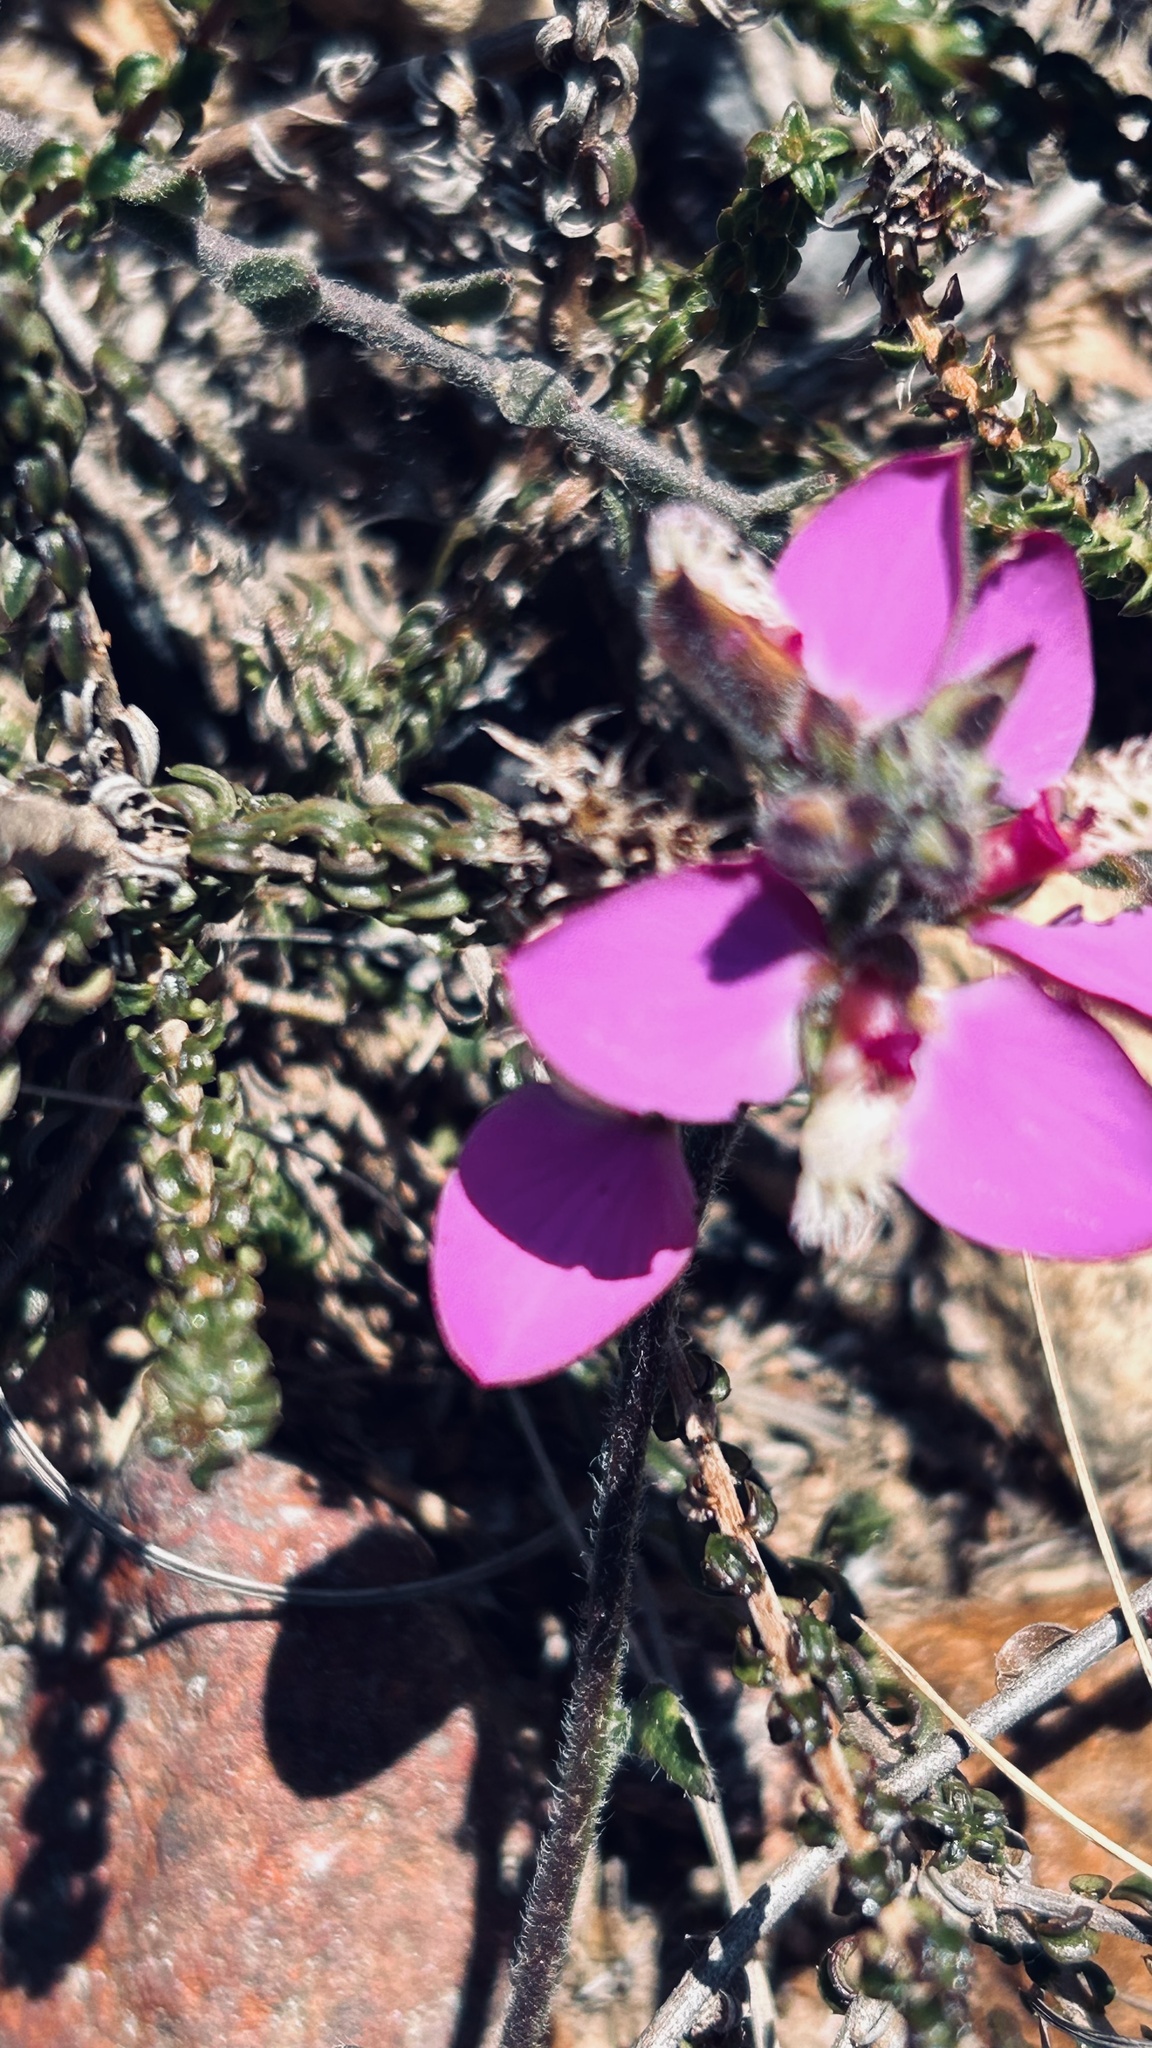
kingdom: Plantae
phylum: Tracheophyta
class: Magnoliopsida
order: Fabales
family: Polygalaceae
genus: Polygala
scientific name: Polygala pubiflora
